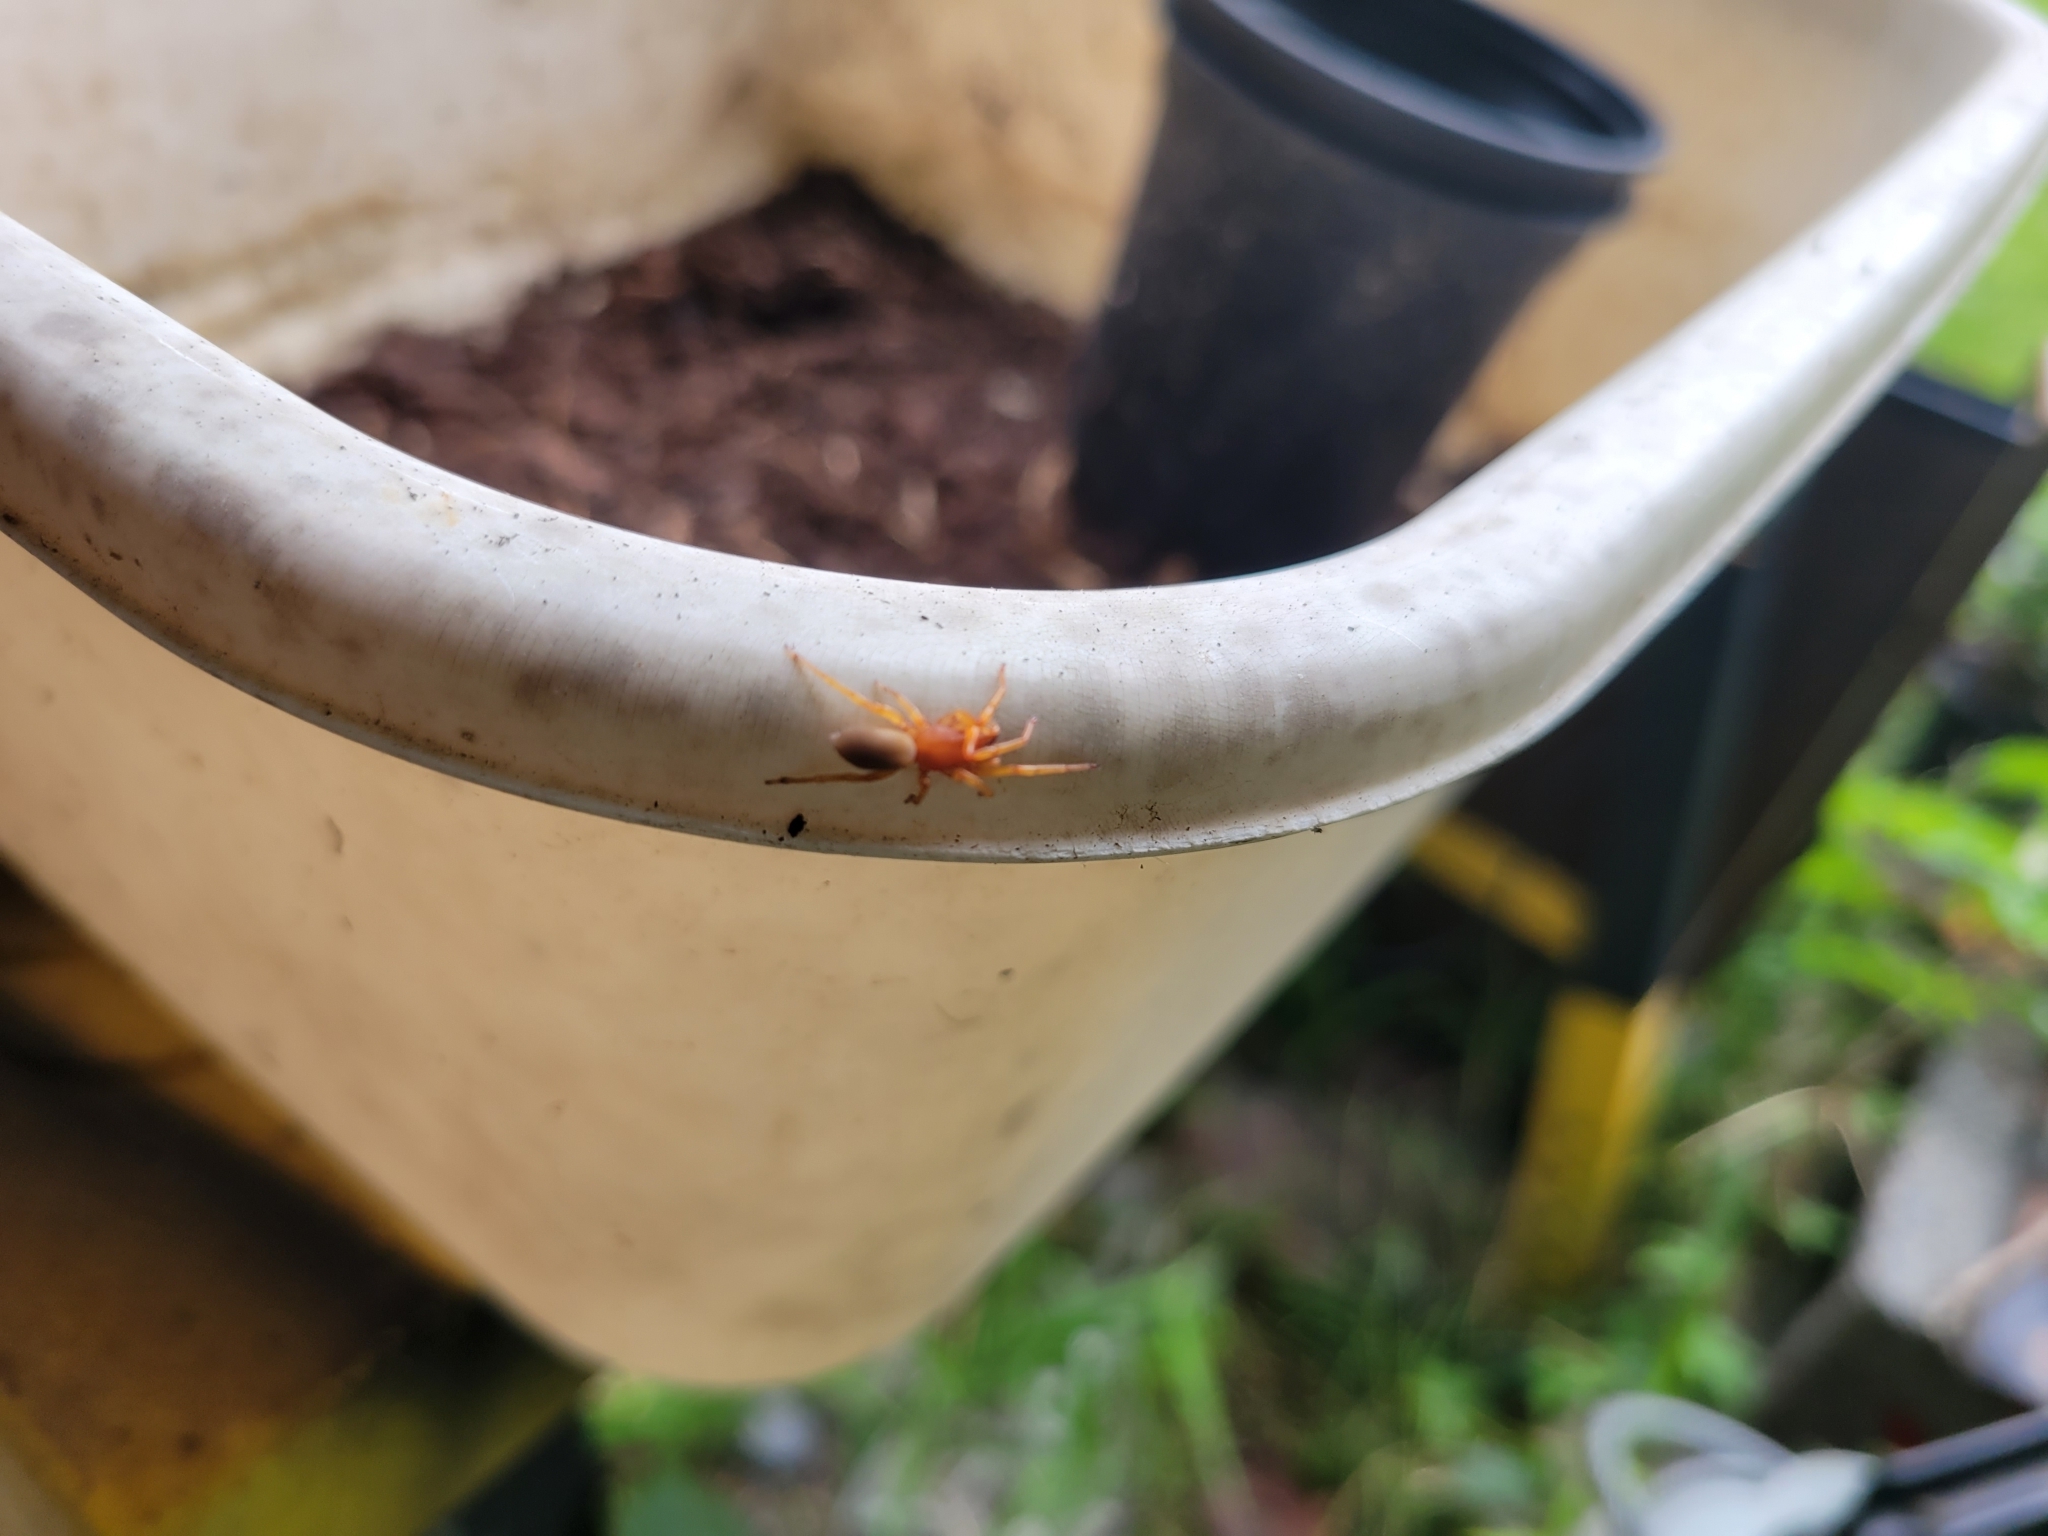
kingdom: Animalia
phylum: Arthropoda
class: Arachnida
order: Araneae
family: Dysderidae
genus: Dysdera
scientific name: Dysdera crocata
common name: Woodlouse spider
